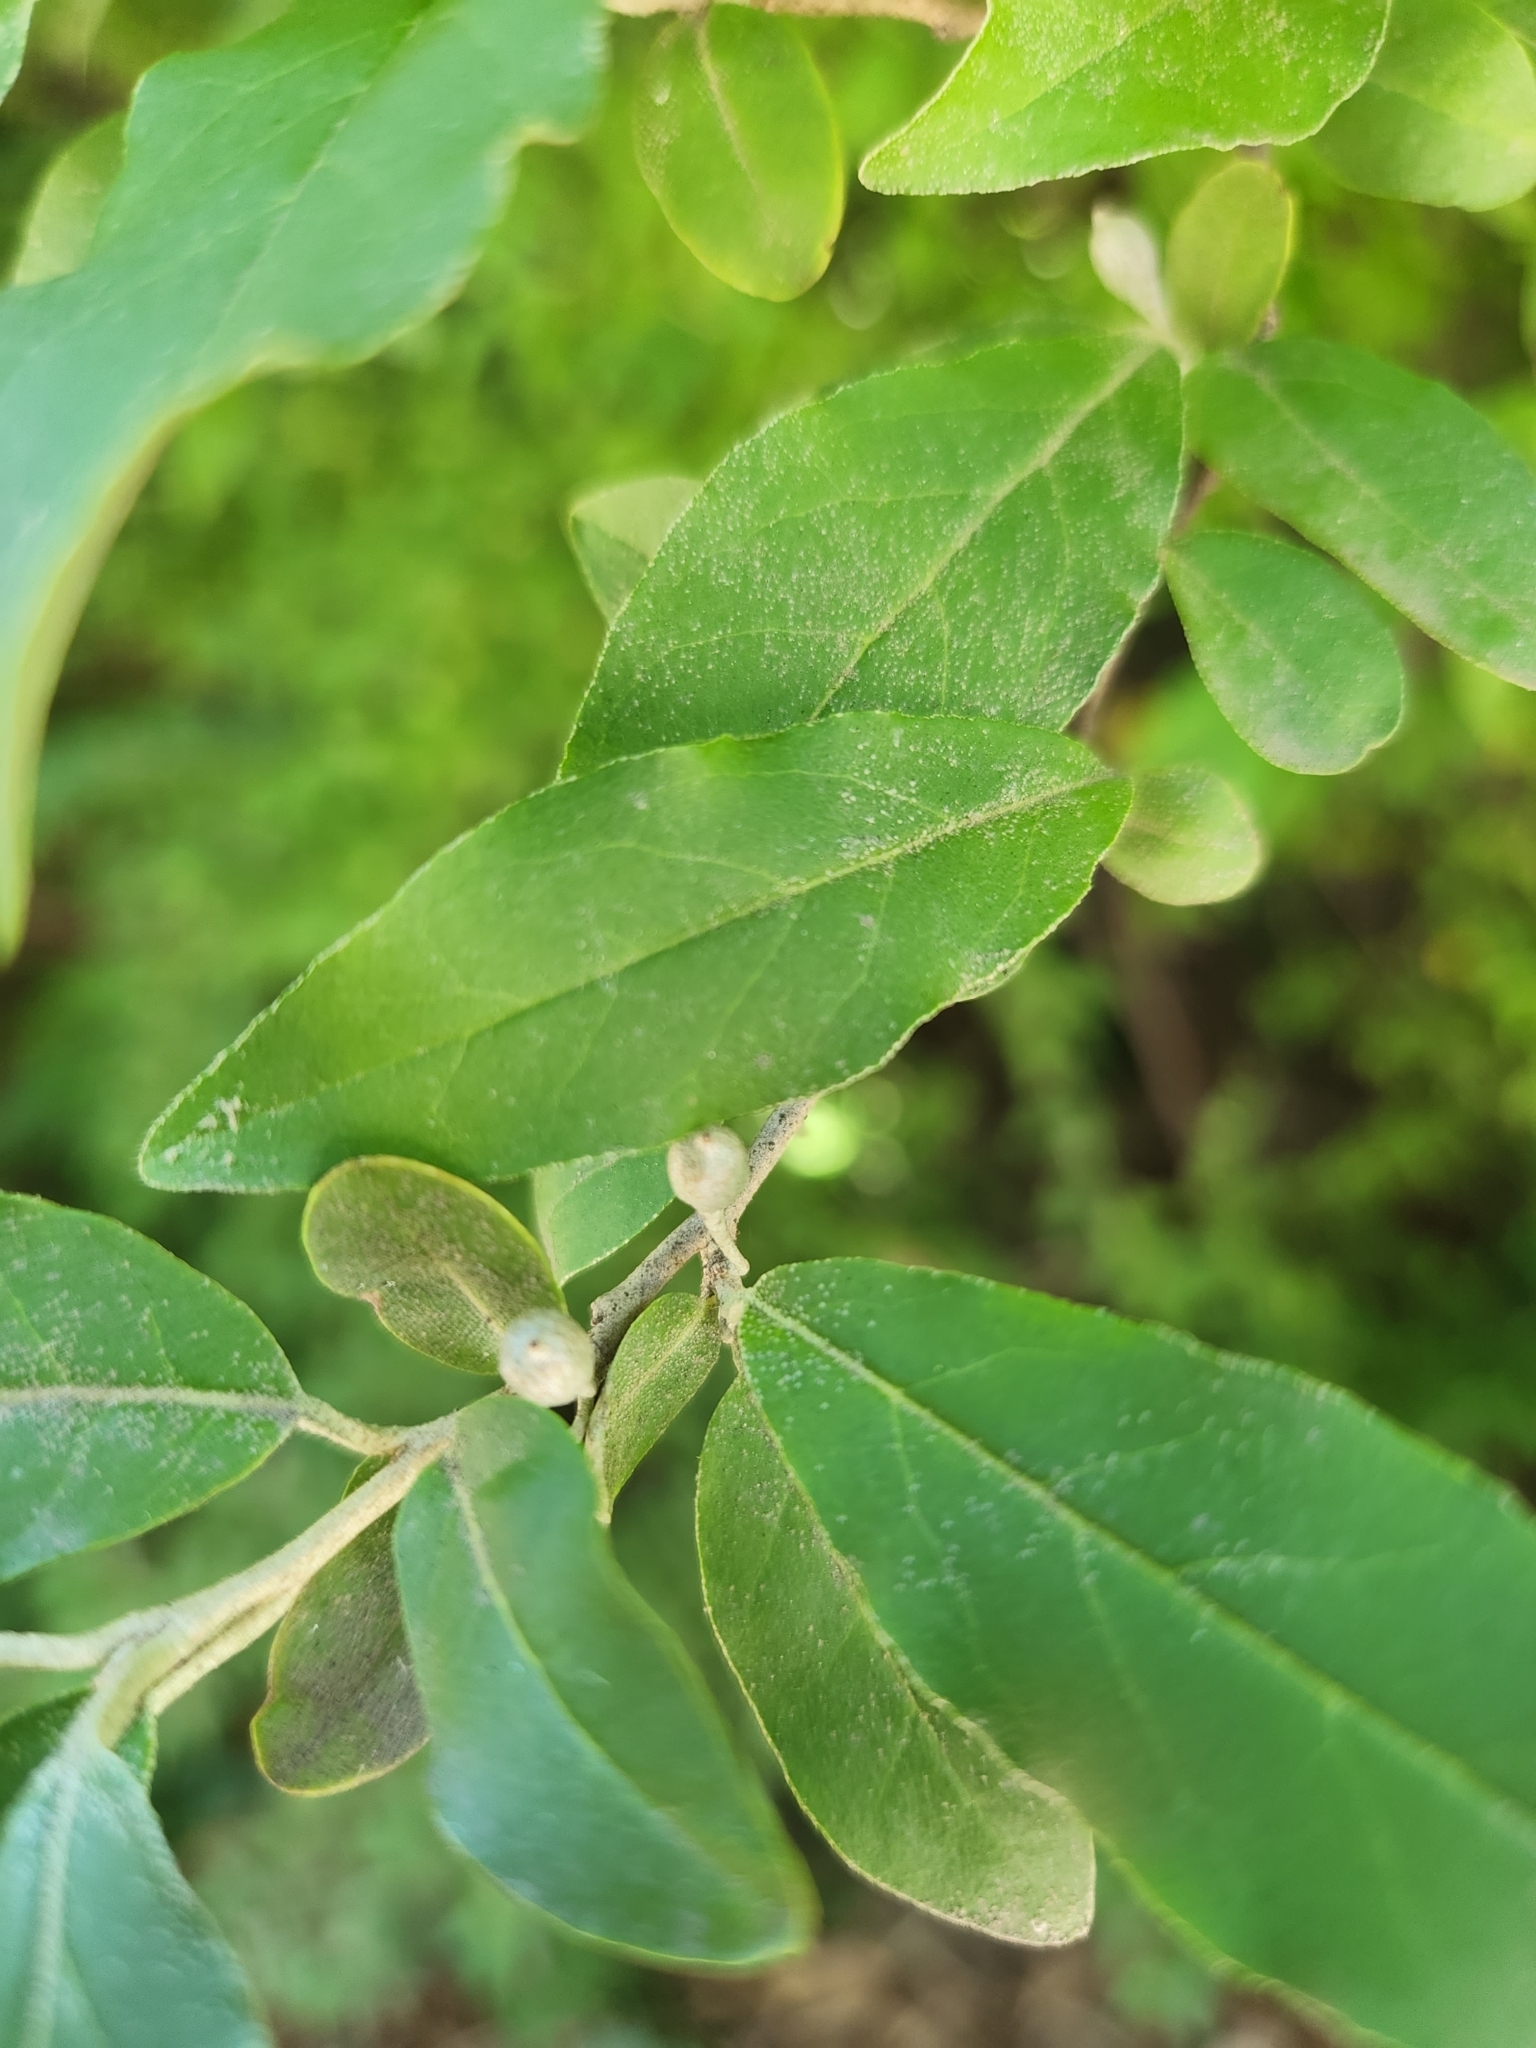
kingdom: Plantae
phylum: Tracheophyta
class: Magnoliopsida
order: Rosales
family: Elaeagnaceae
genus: Elaeagnus
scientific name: Elaeagnus umbellata
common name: Autumn olive
